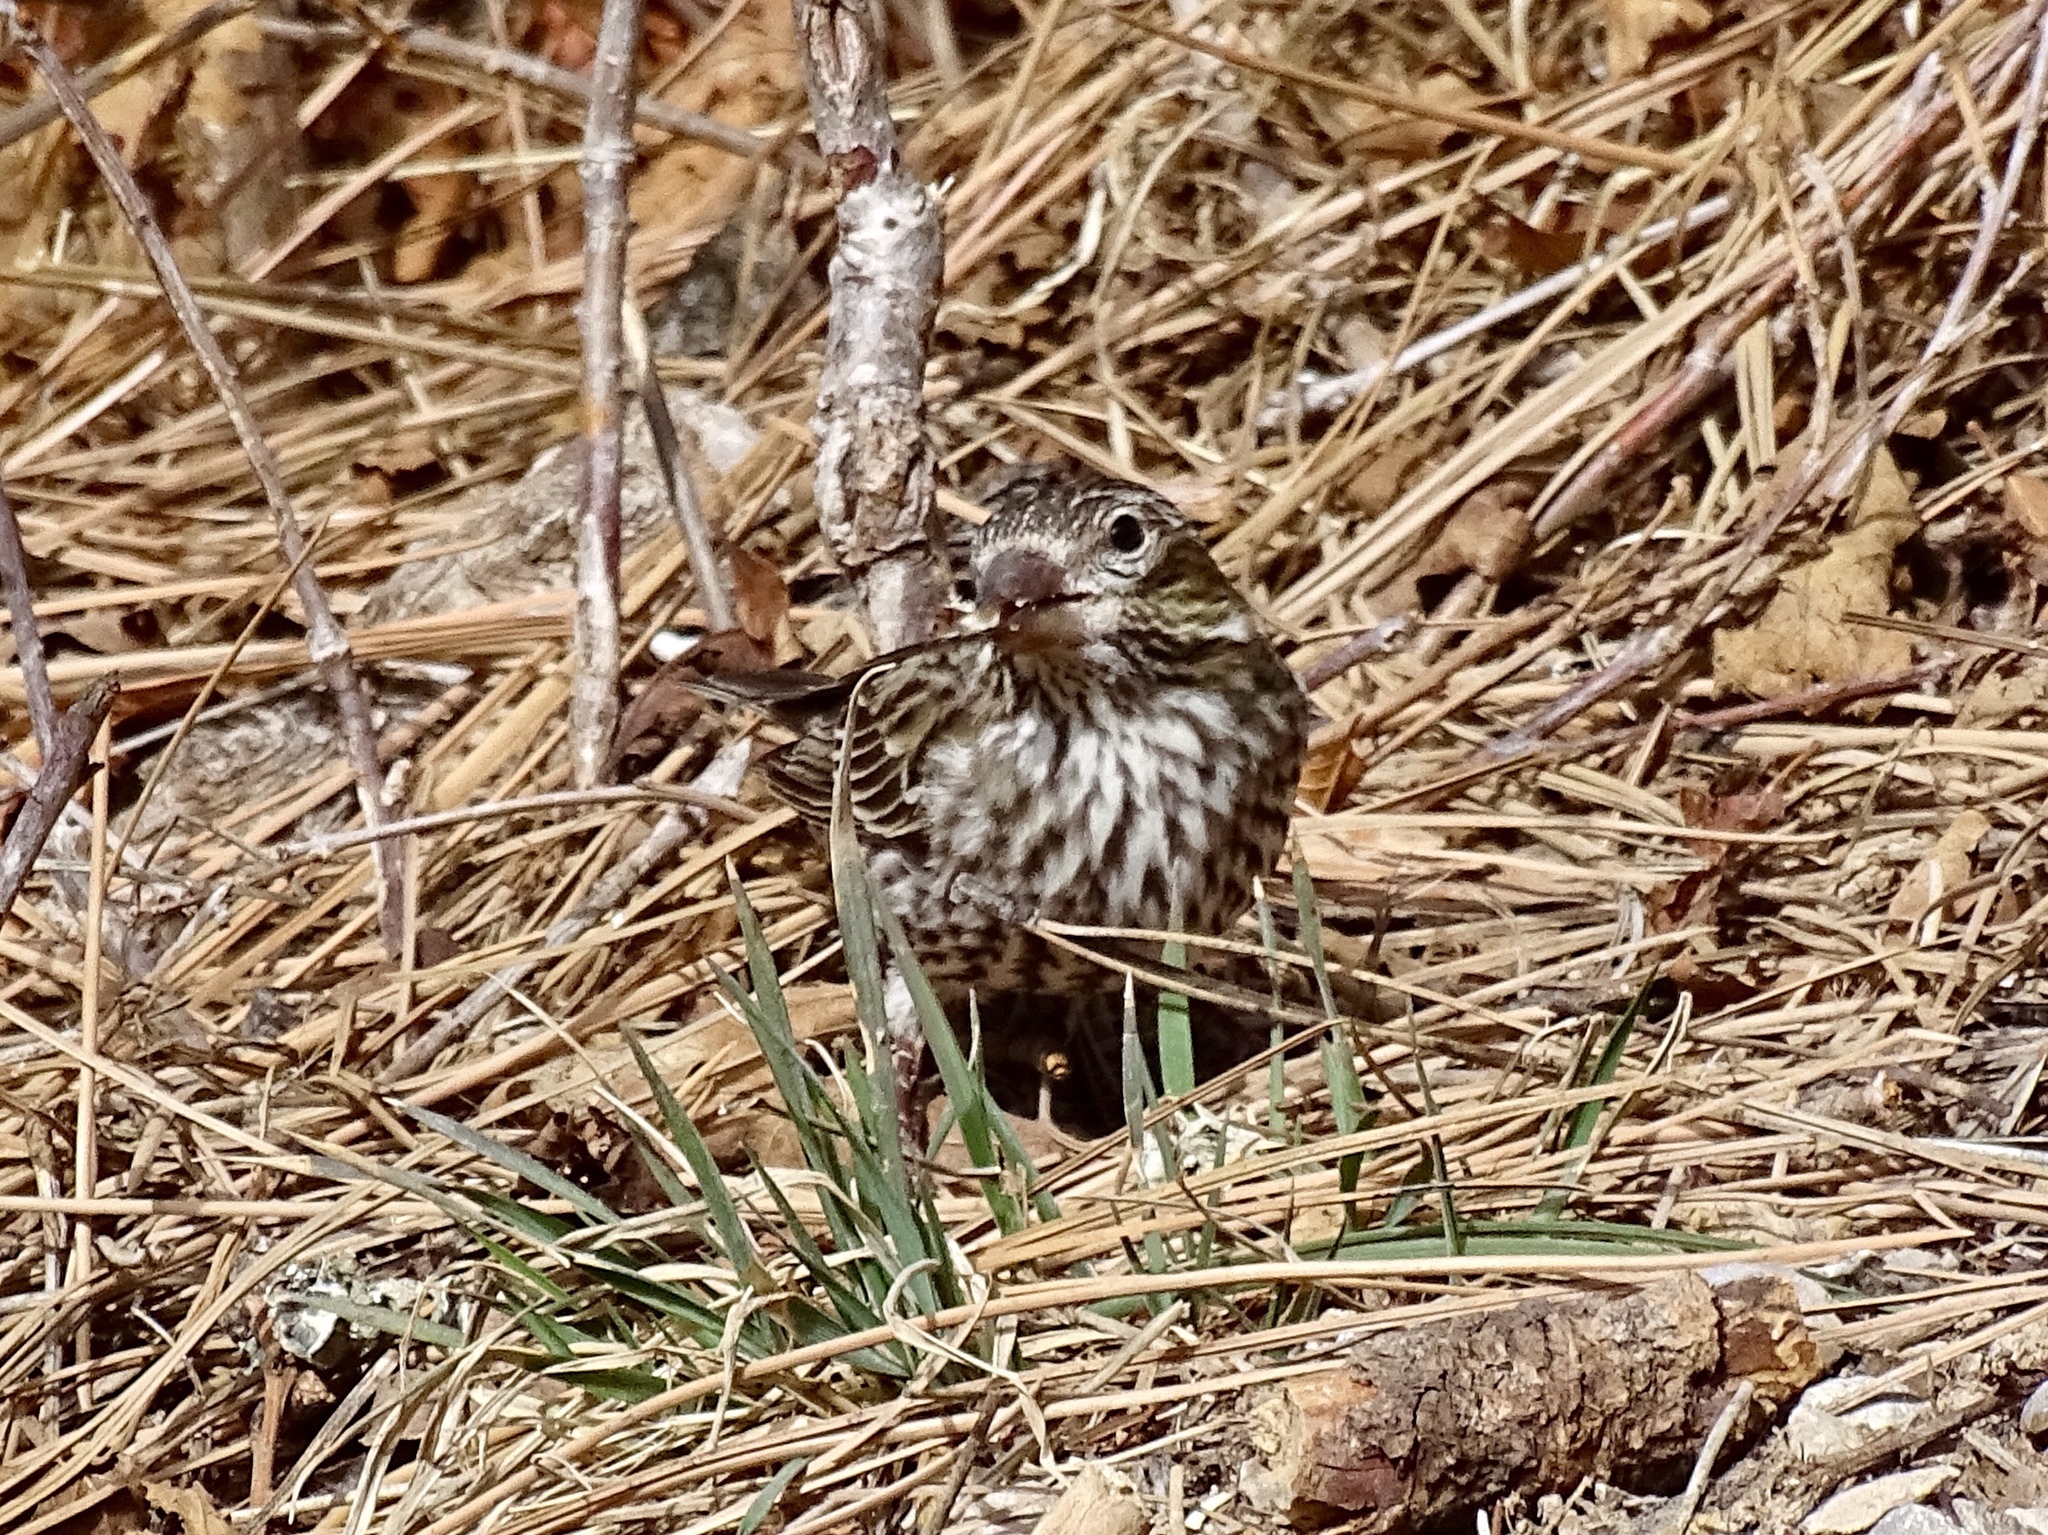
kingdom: Animalia
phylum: Chordata
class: Aves
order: Passeriformes
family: Fringillidae
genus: Haemorhous
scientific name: Haemorhous cassinii
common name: Cassin's finch
